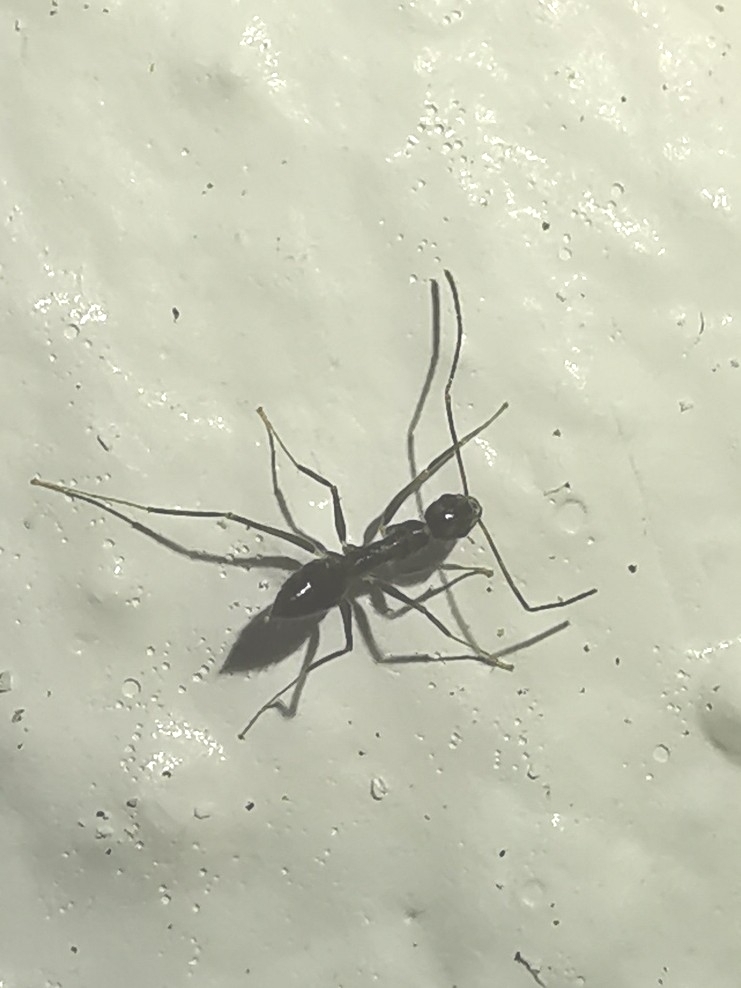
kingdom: Animalia
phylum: Arthropoda
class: Insecta
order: Hymenoptera
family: Formicidae
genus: Paratrechina
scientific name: Paratrechina longicornis
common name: Longhorned crazy ant
